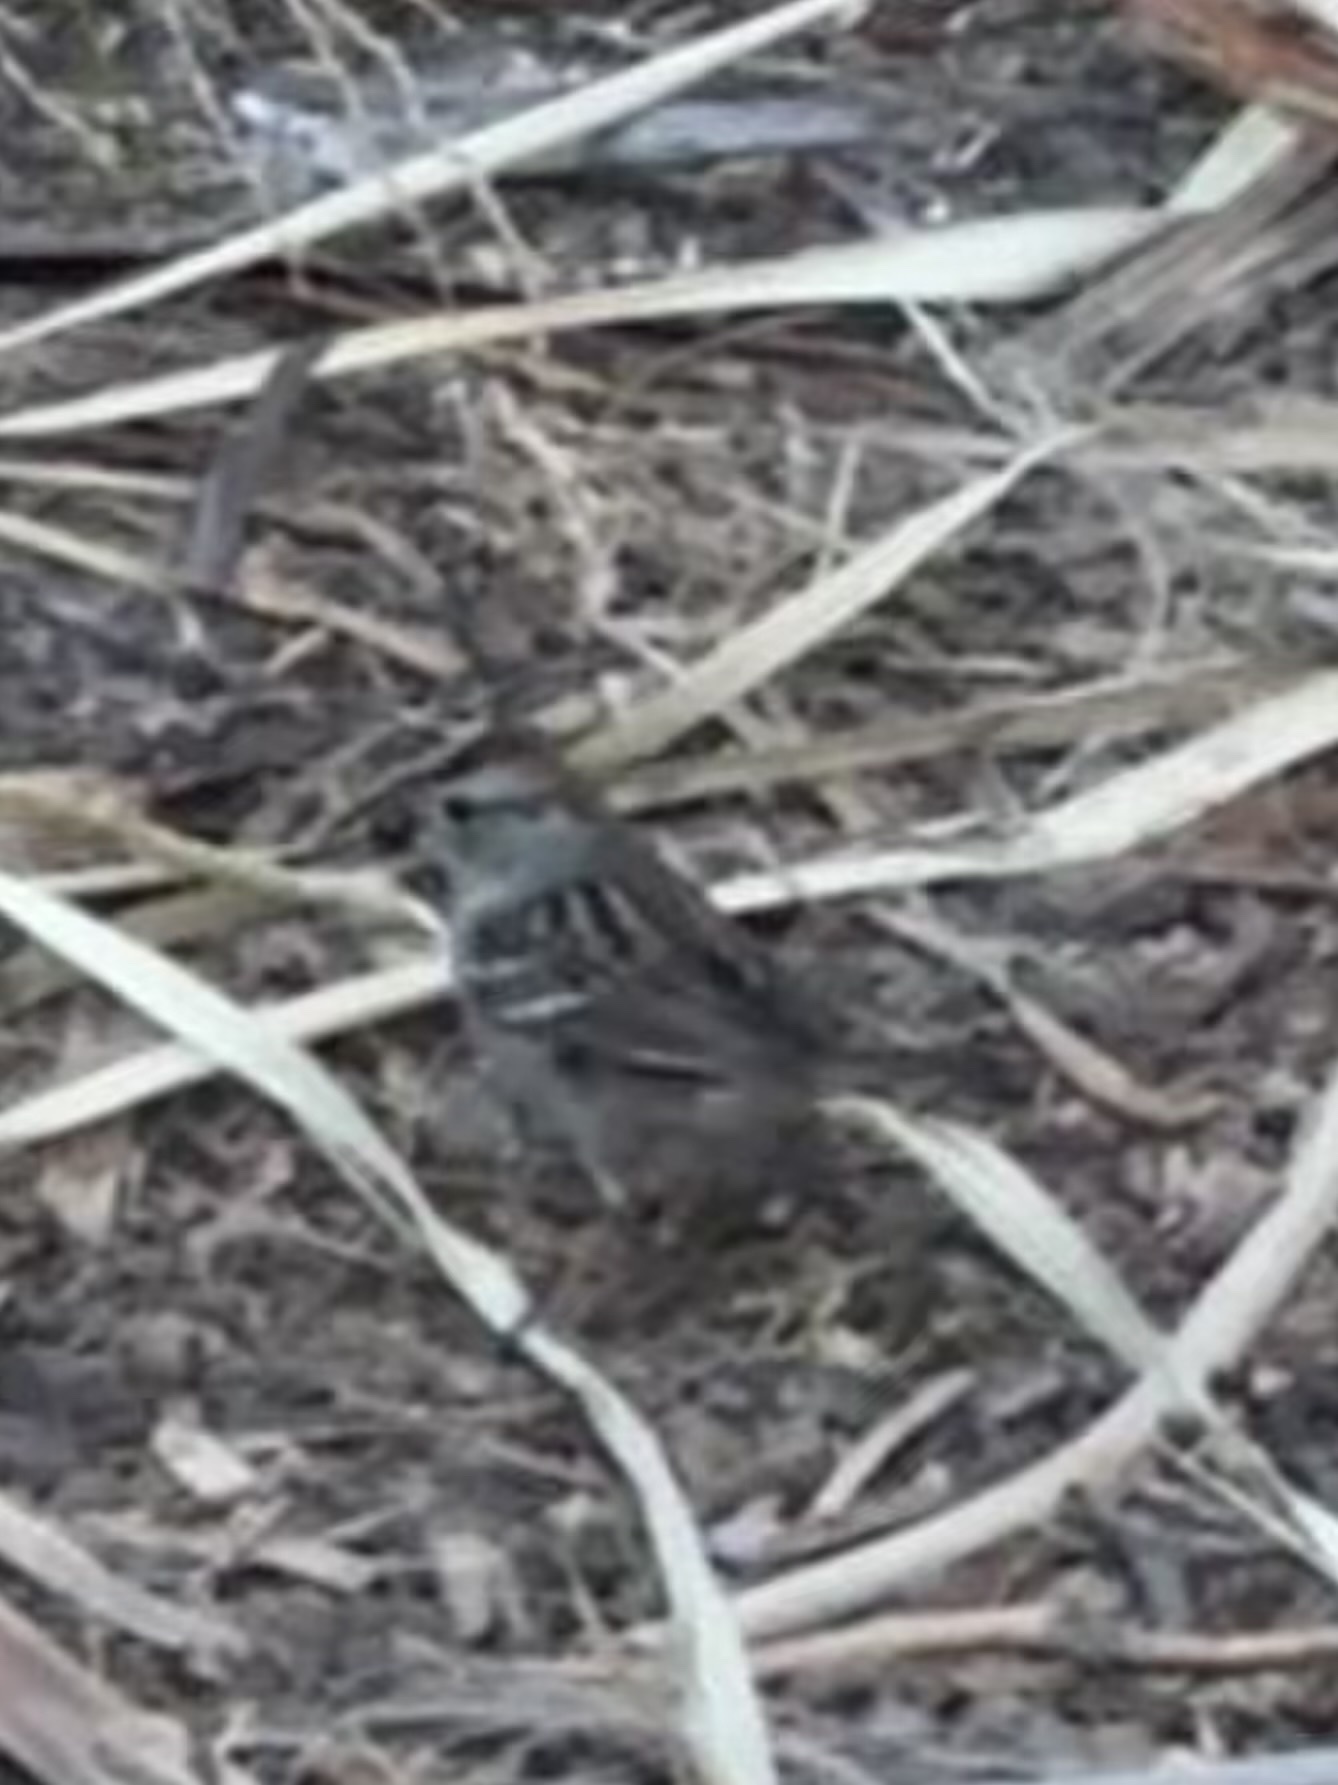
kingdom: Animalia
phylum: Chordata
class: Aves
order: Passeriformes
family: Passerellidae
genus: Zonotrichia
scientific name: Zonotrichia leucophrys
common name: White-crowned sparrow
